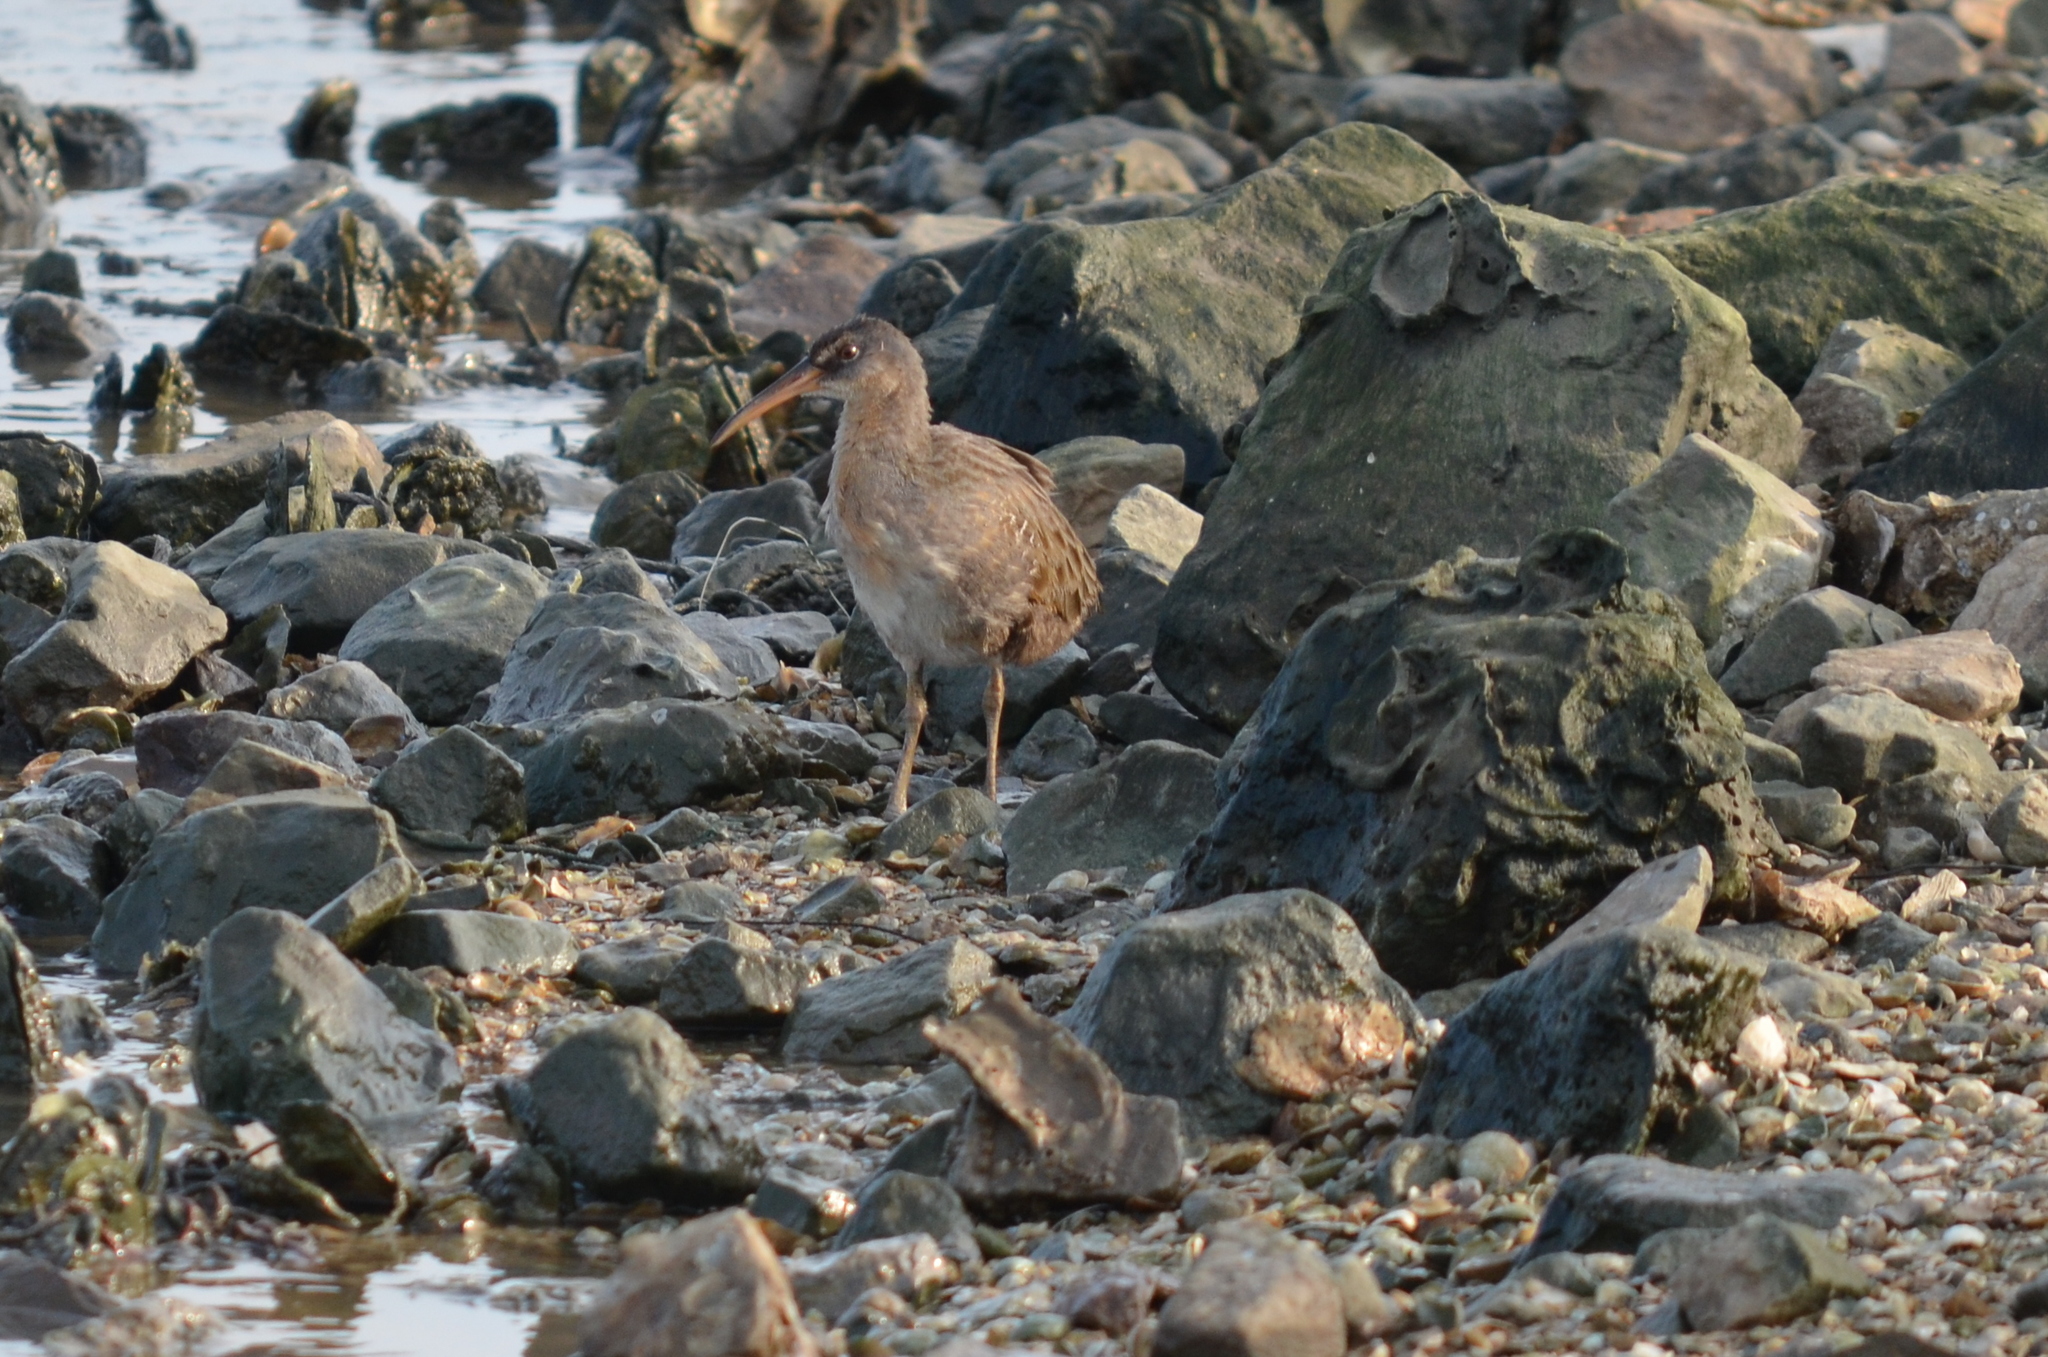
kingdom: Animalia
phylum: Chordata
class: Aves
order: Gruiformes
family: Rallidae
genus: Rallus
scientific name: Rallus crepitans
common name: Clapper rail
